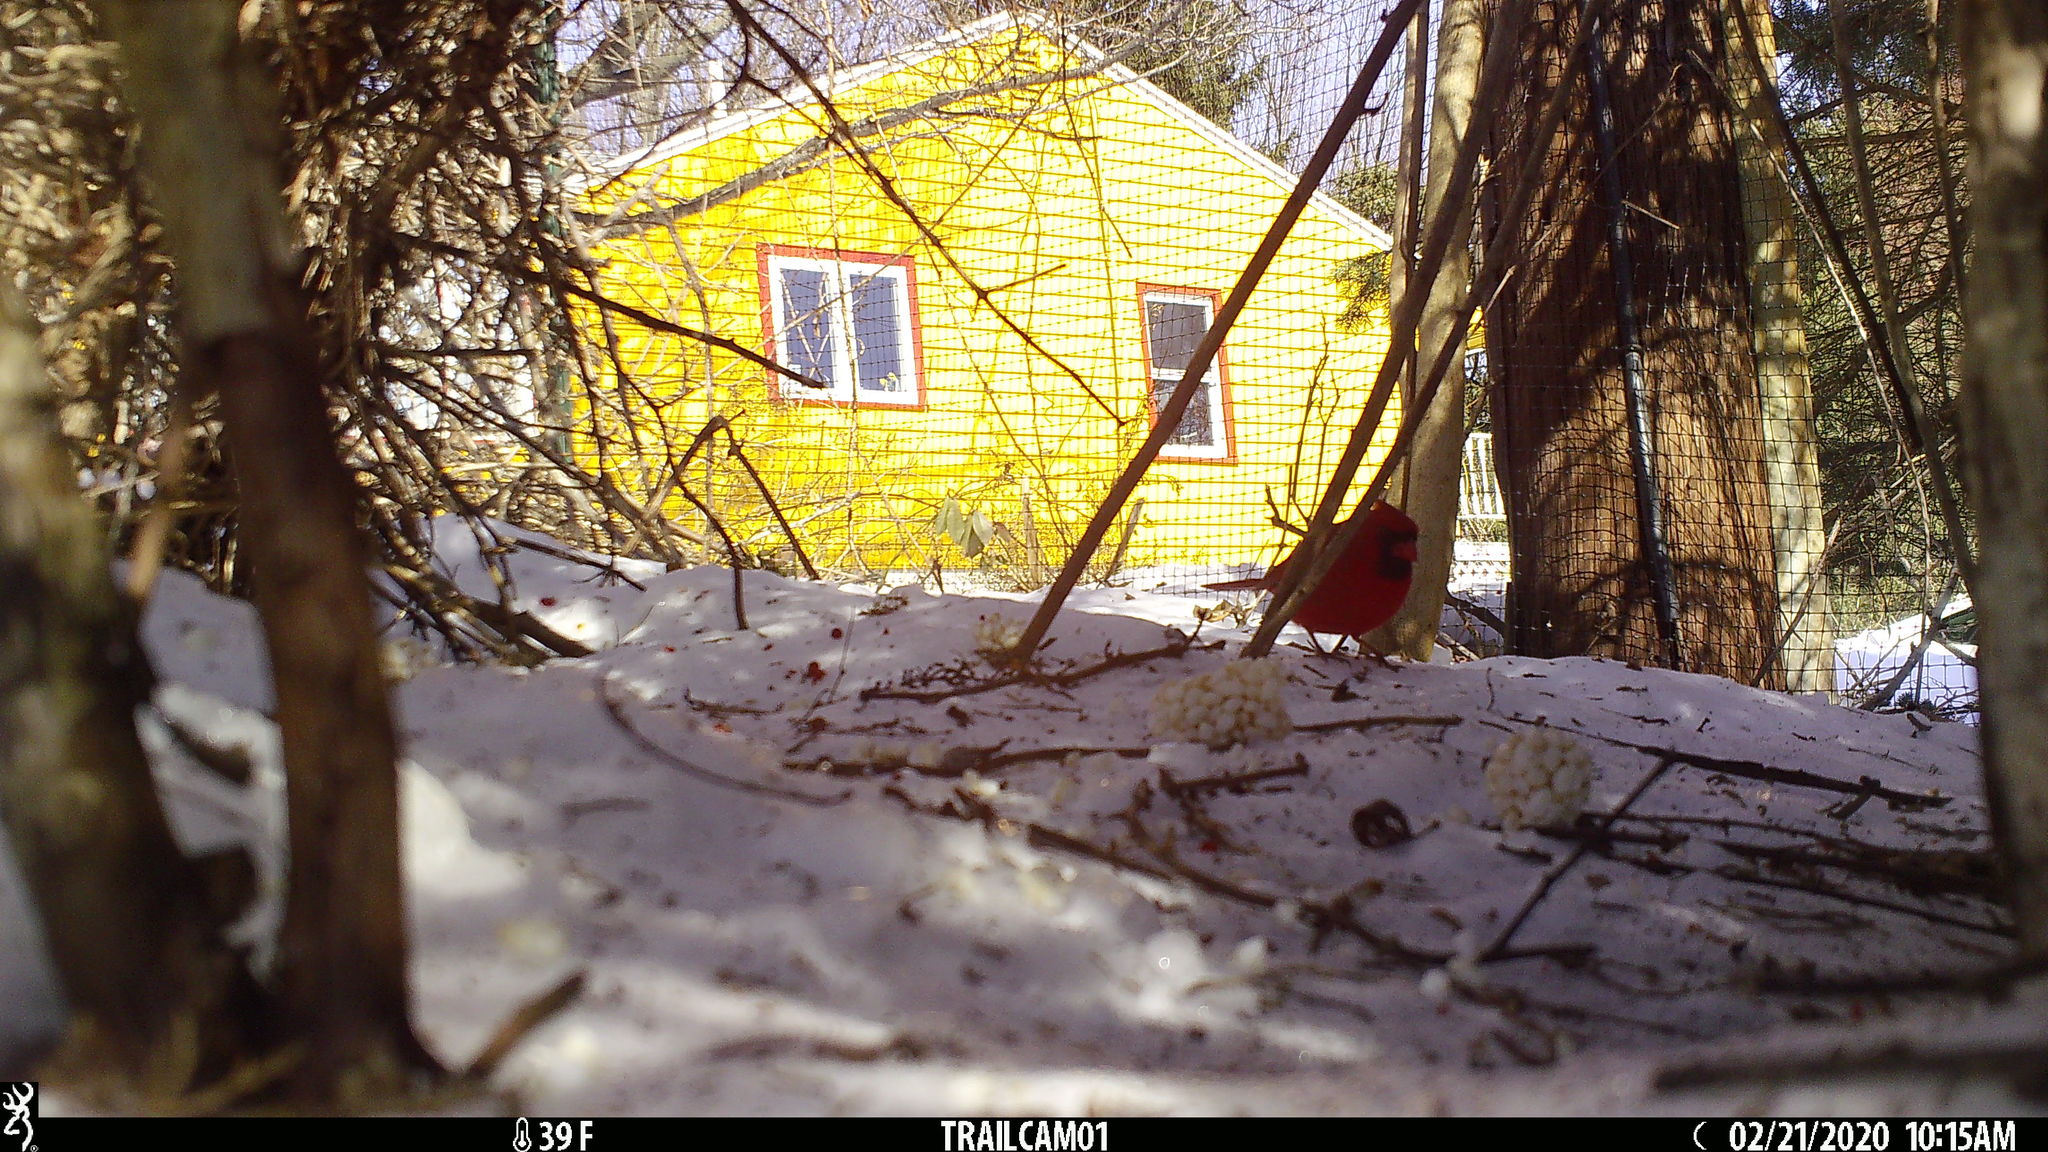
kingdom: Animalia
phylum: Chordata
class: Aves
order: Passeriformes
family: Cardinalidae
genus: Cardinalis
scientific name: Cardinalis cardinalis
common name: Northern cardinal
